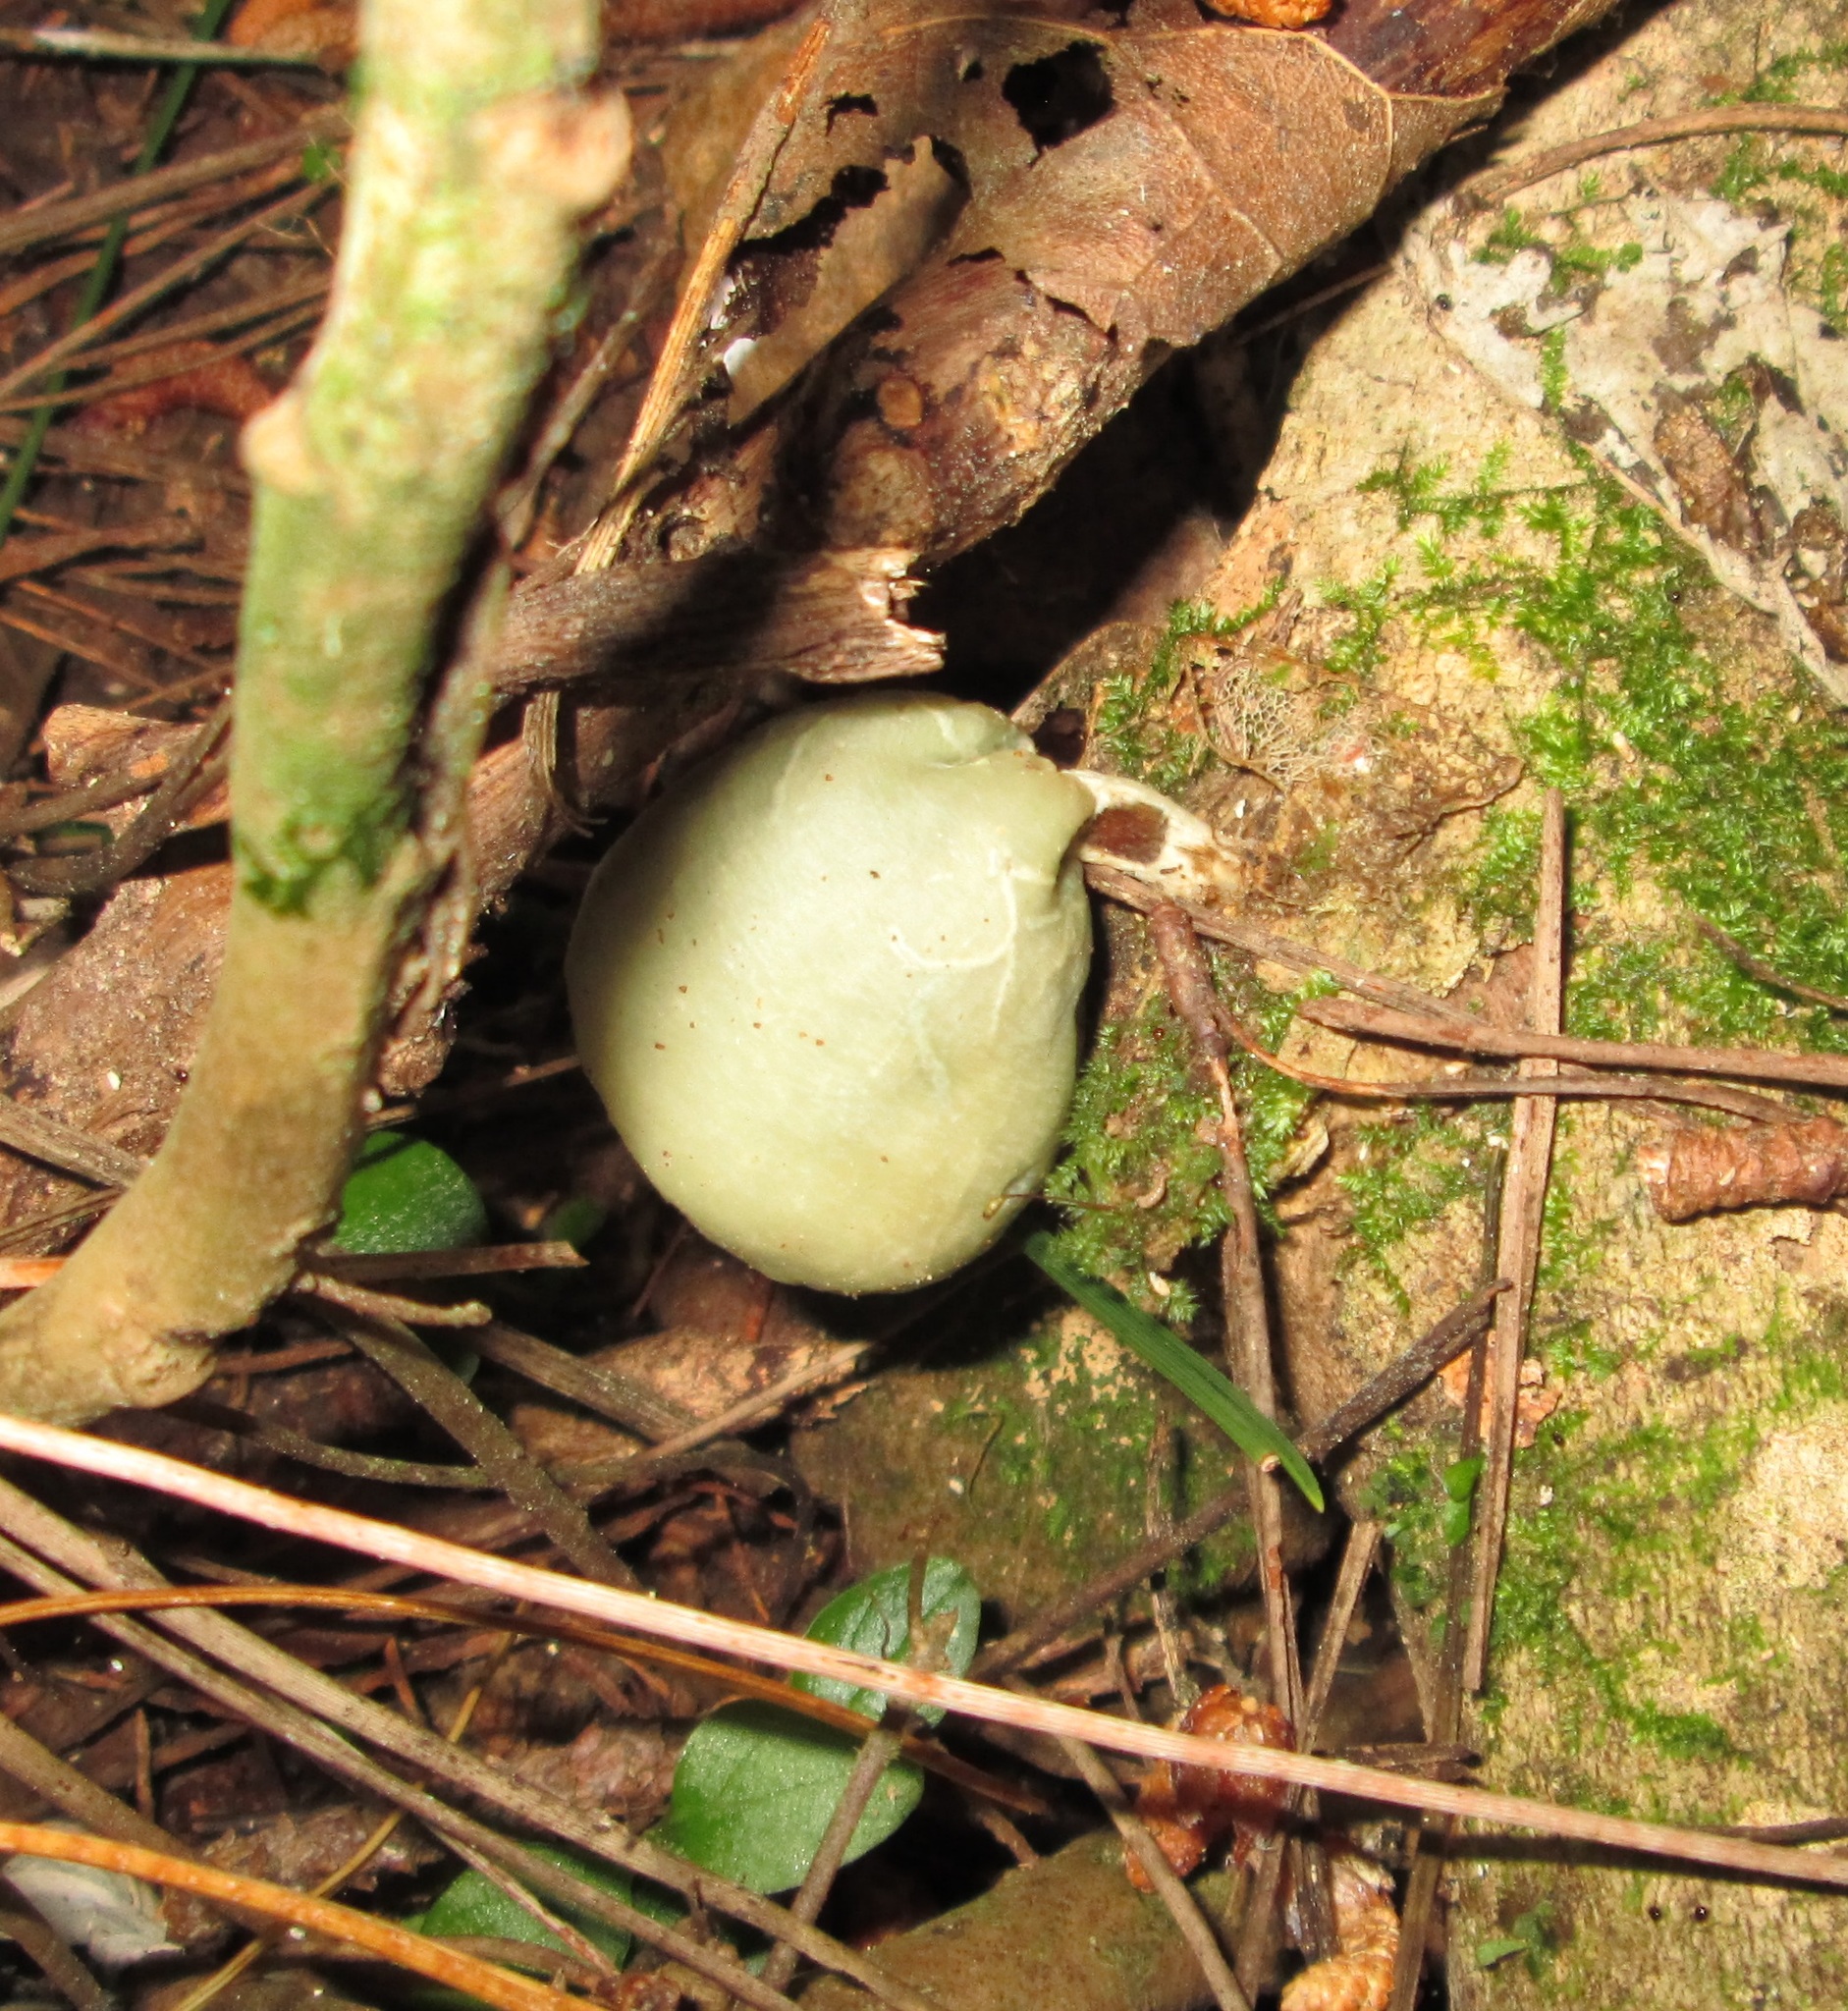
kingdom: Fungi
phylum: Basidiomycota
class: Agaricomycetes
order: Agaricales
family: Hymenogastraceae
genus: Psilocybe
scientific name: Psilocybe weraroa
